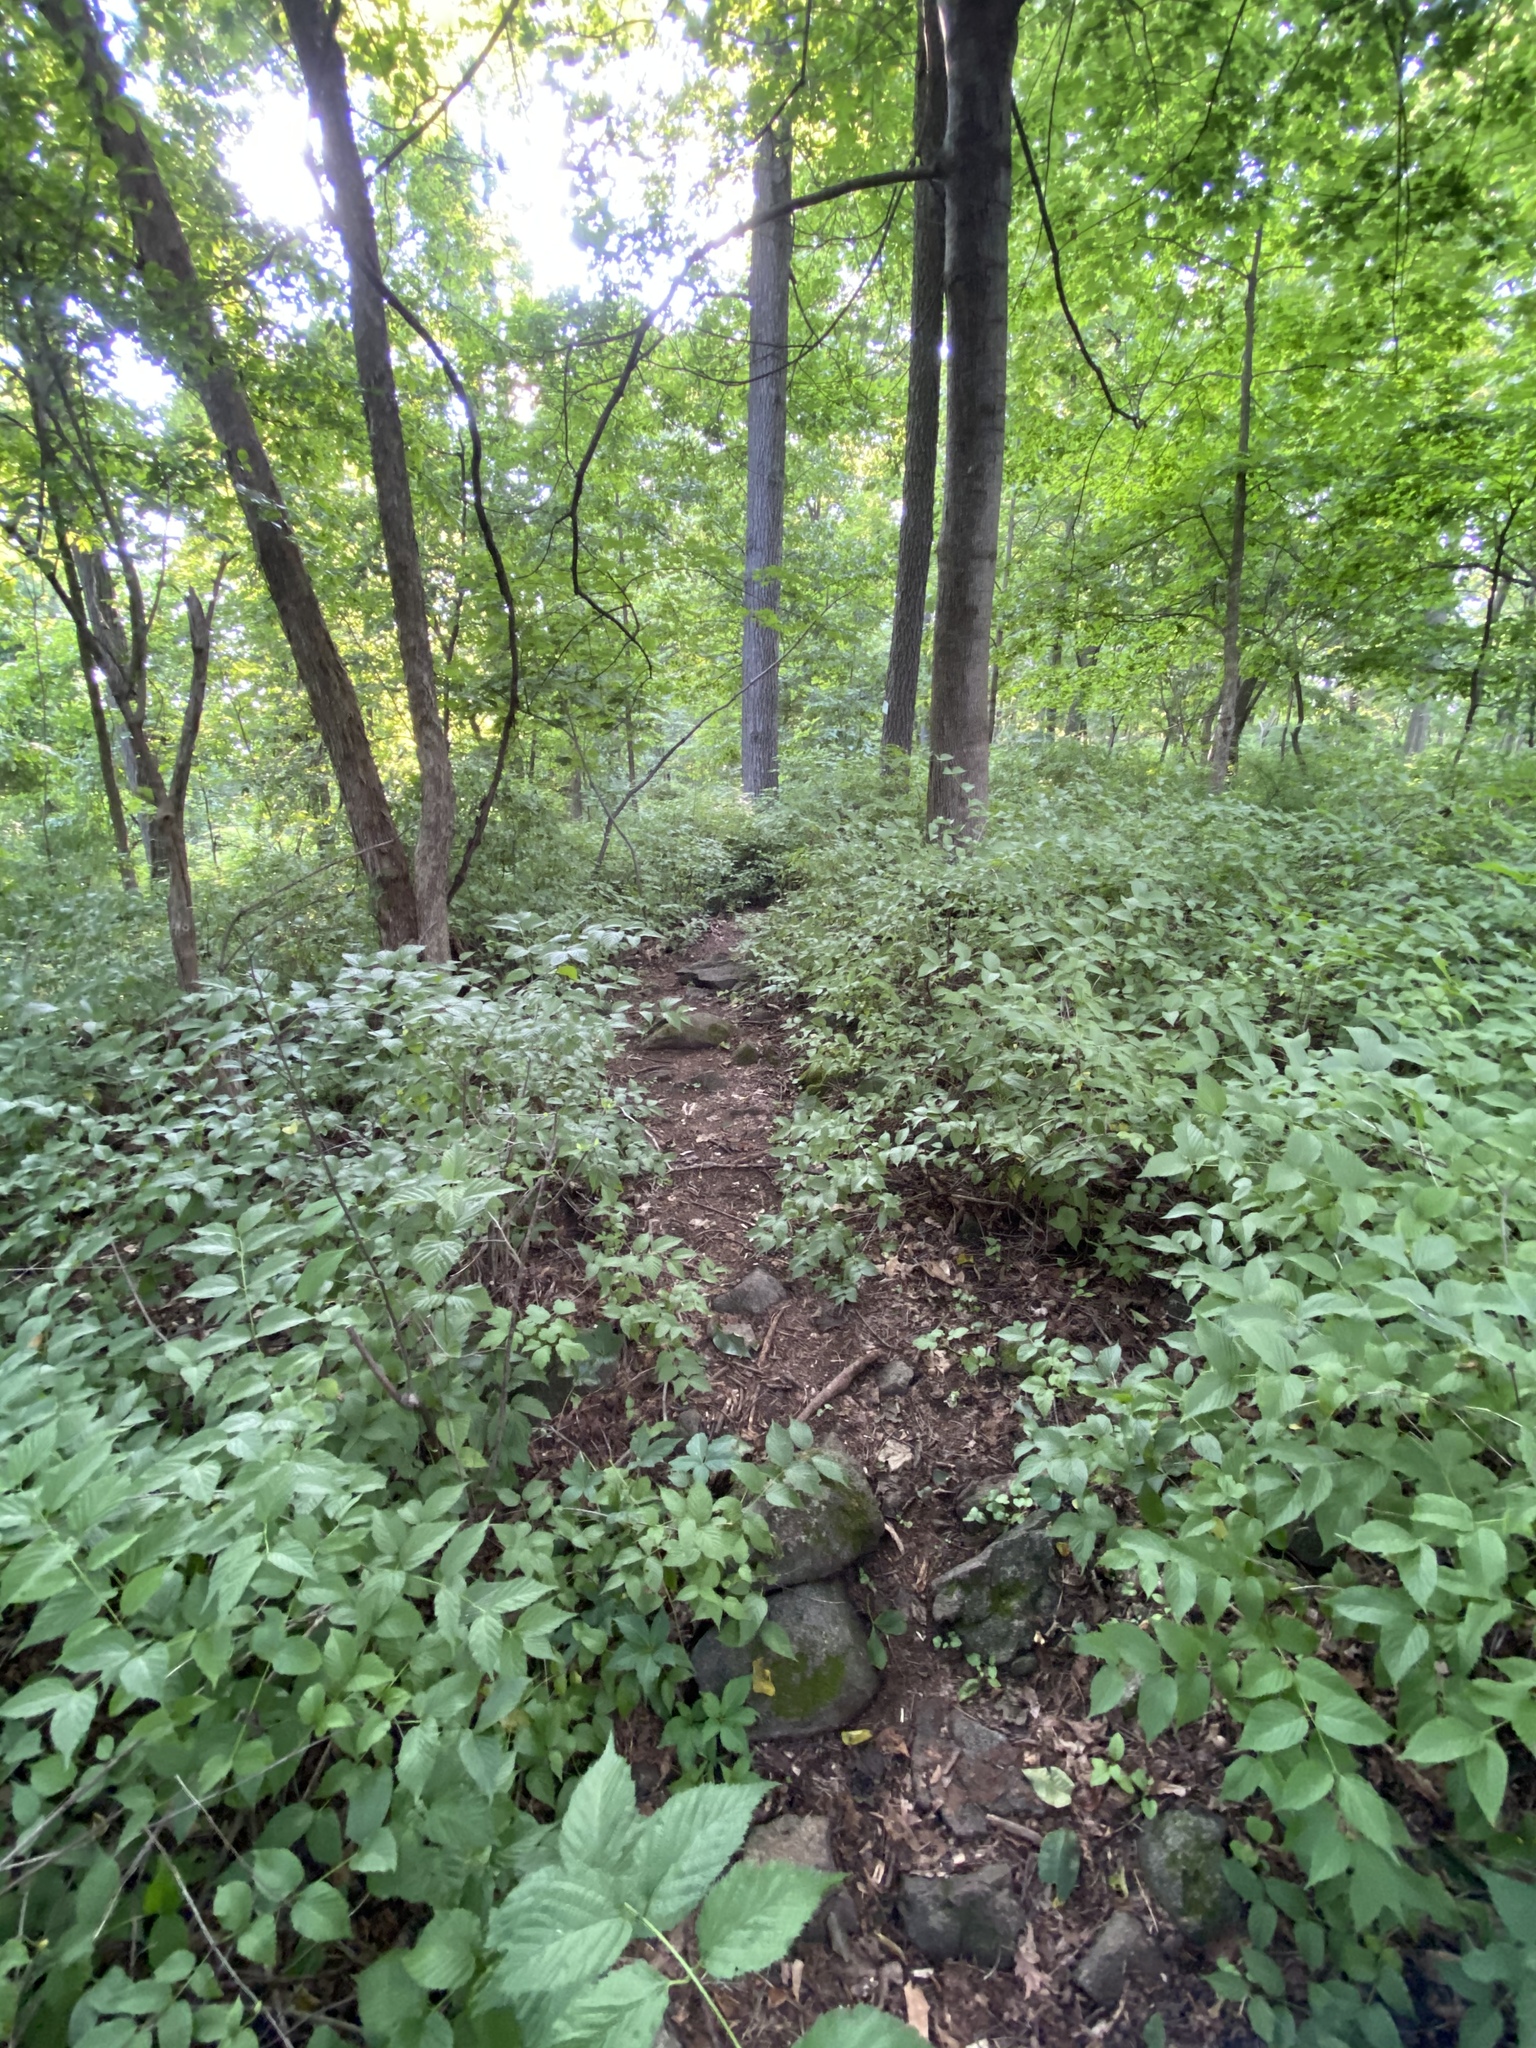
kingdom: Plantae
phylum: Tracheophyta
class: Magnoliopsida
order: Rosales
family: Rosaceae
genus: Rhodotypos
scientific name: Rhodotypos scandens
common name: Jetbead
